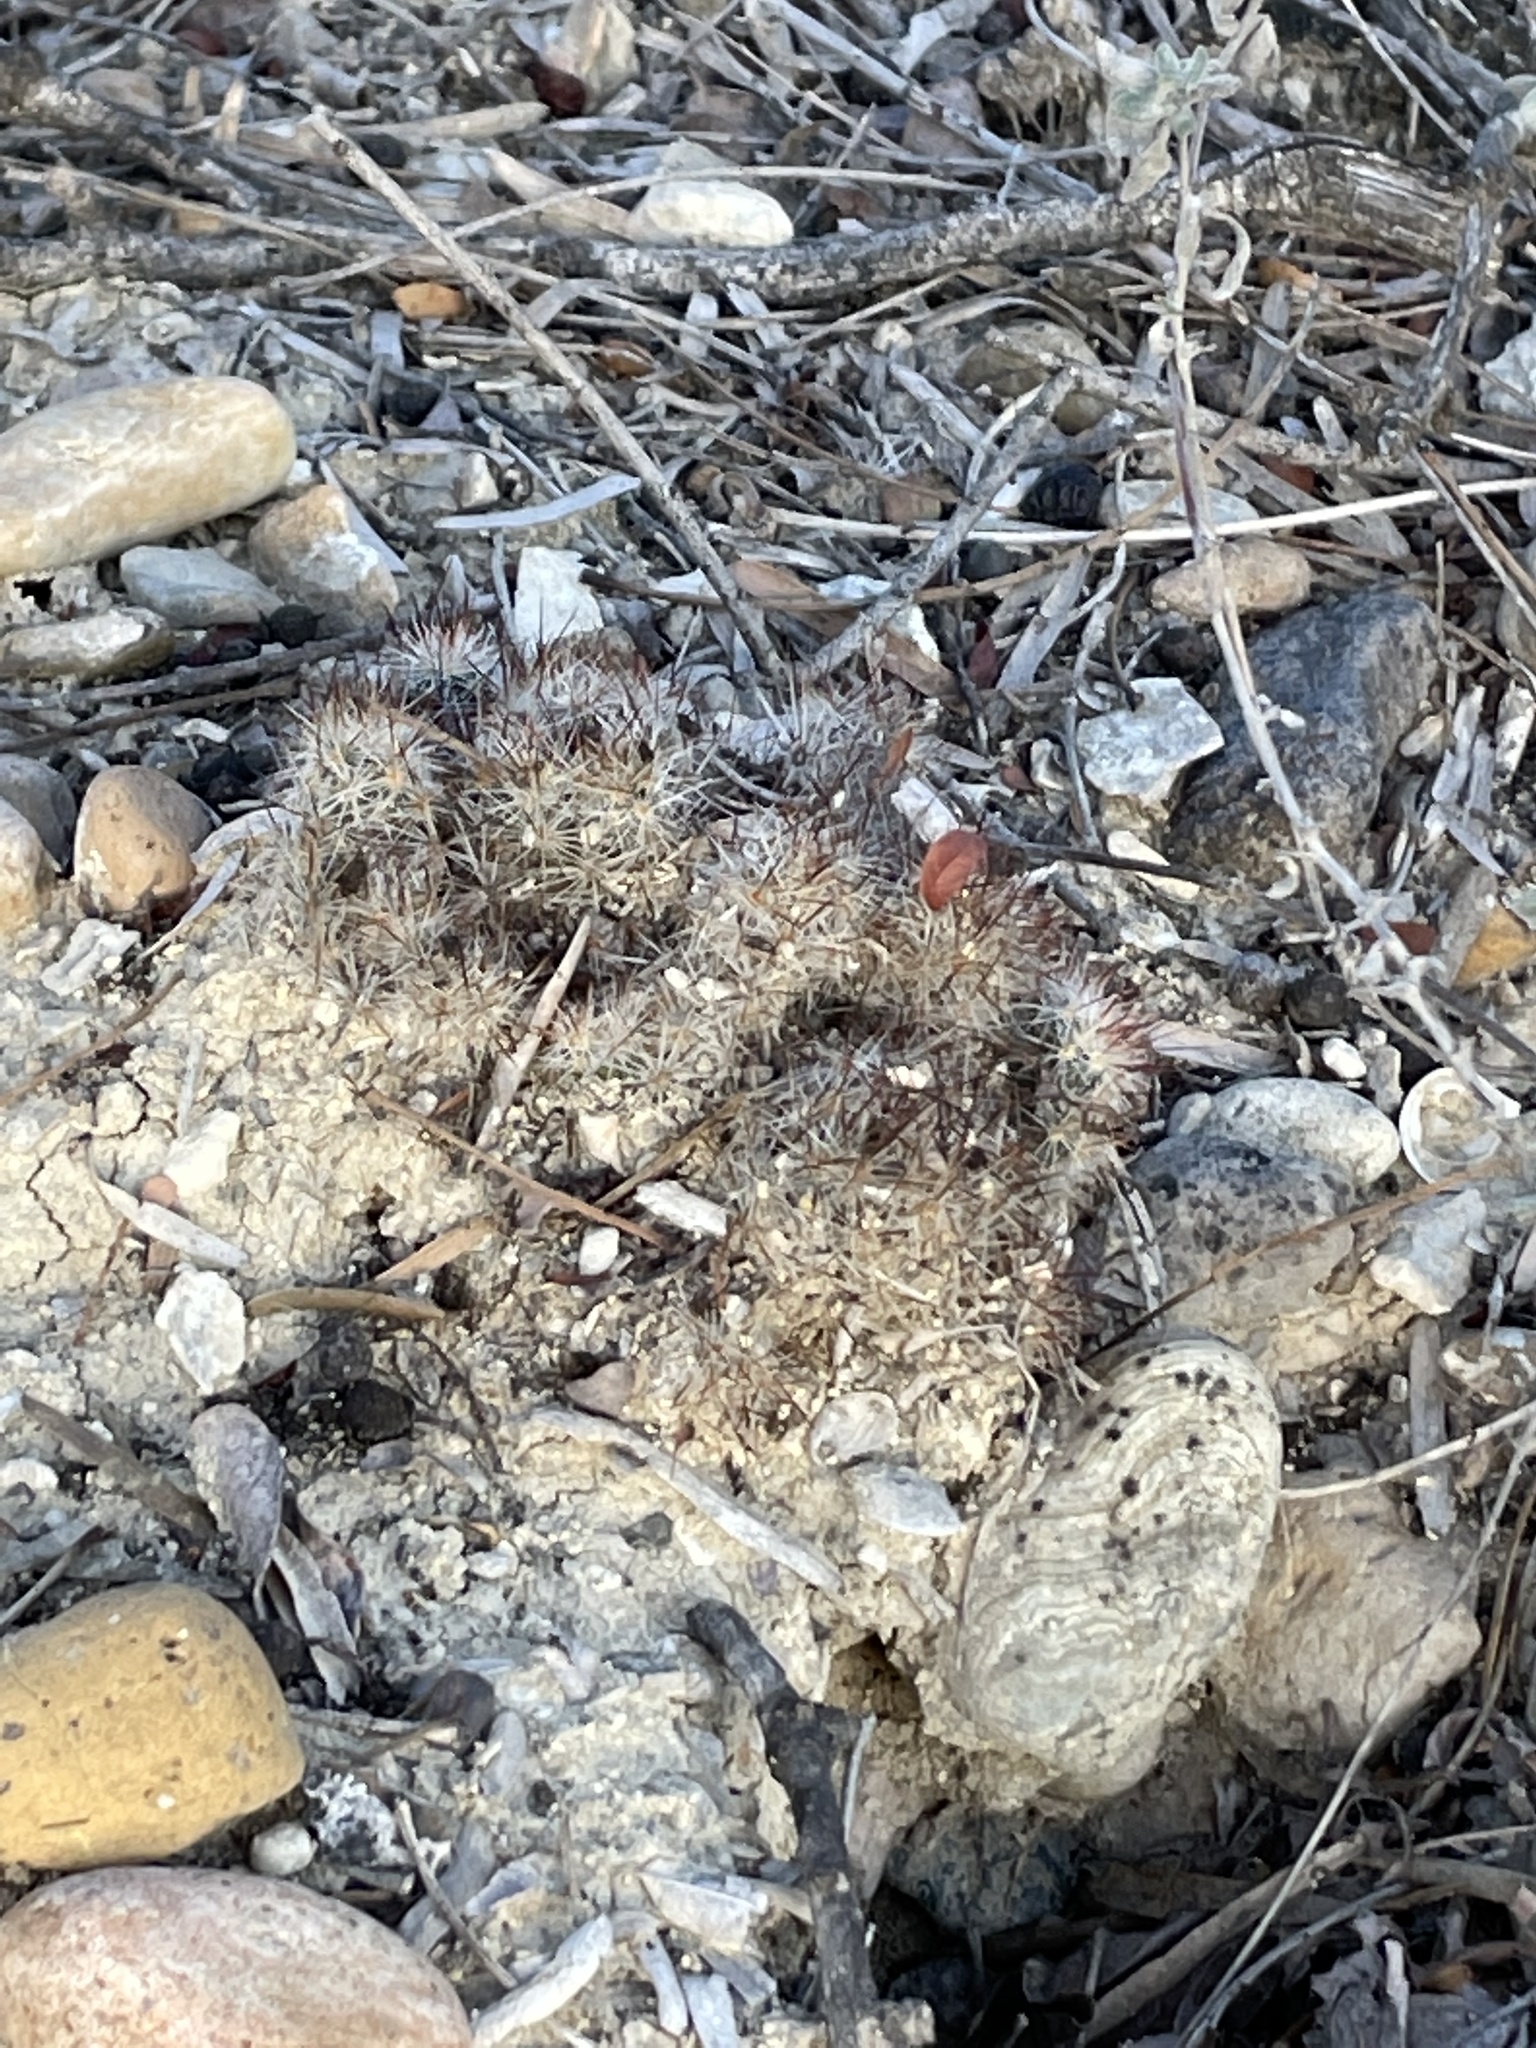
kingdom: Plantae
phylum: Tracheophyta
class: Magnoliopsida
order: Caryophyllales
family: Cactaceae
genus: Mammillaria
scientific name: Mammillaria prolifera
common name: Texas nipple cactus
